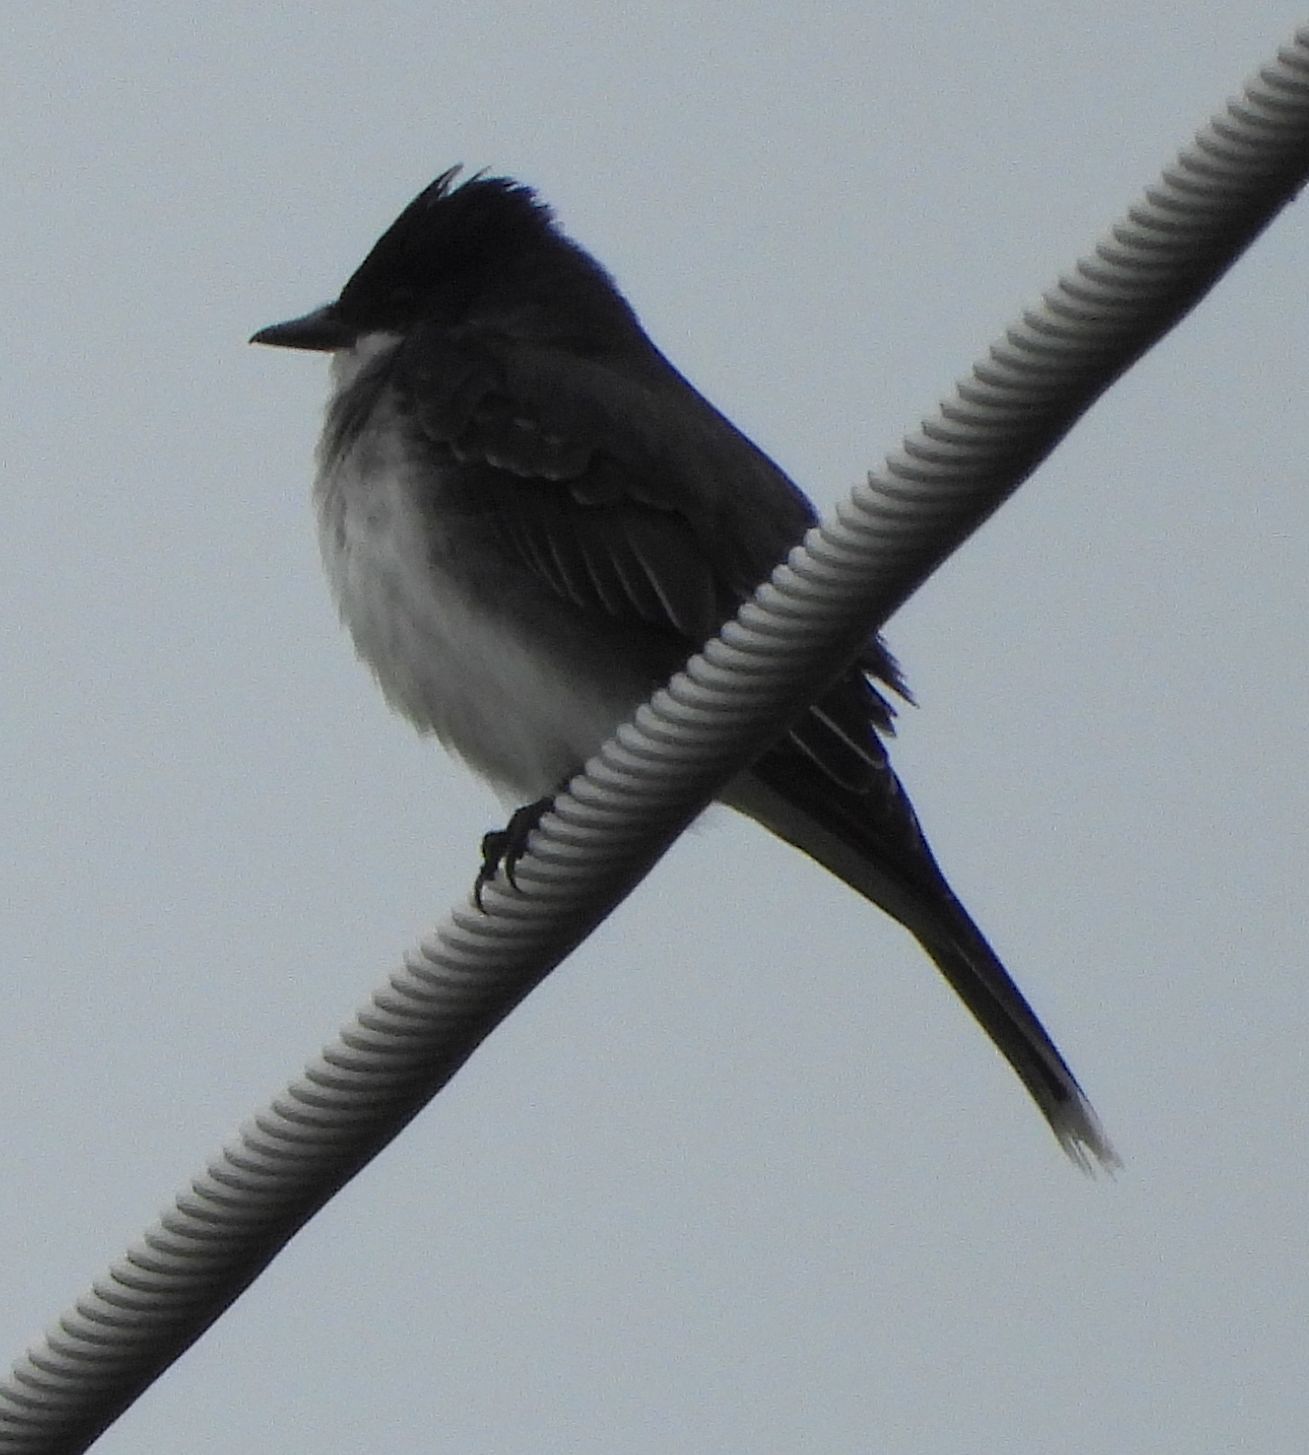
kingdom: Animalia
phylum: Chordata
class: Aves
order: Passeriformes
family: Tyrannidae
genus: Tyrannus
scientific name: Tyrannus tyrannus
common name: Eastern kingbird
